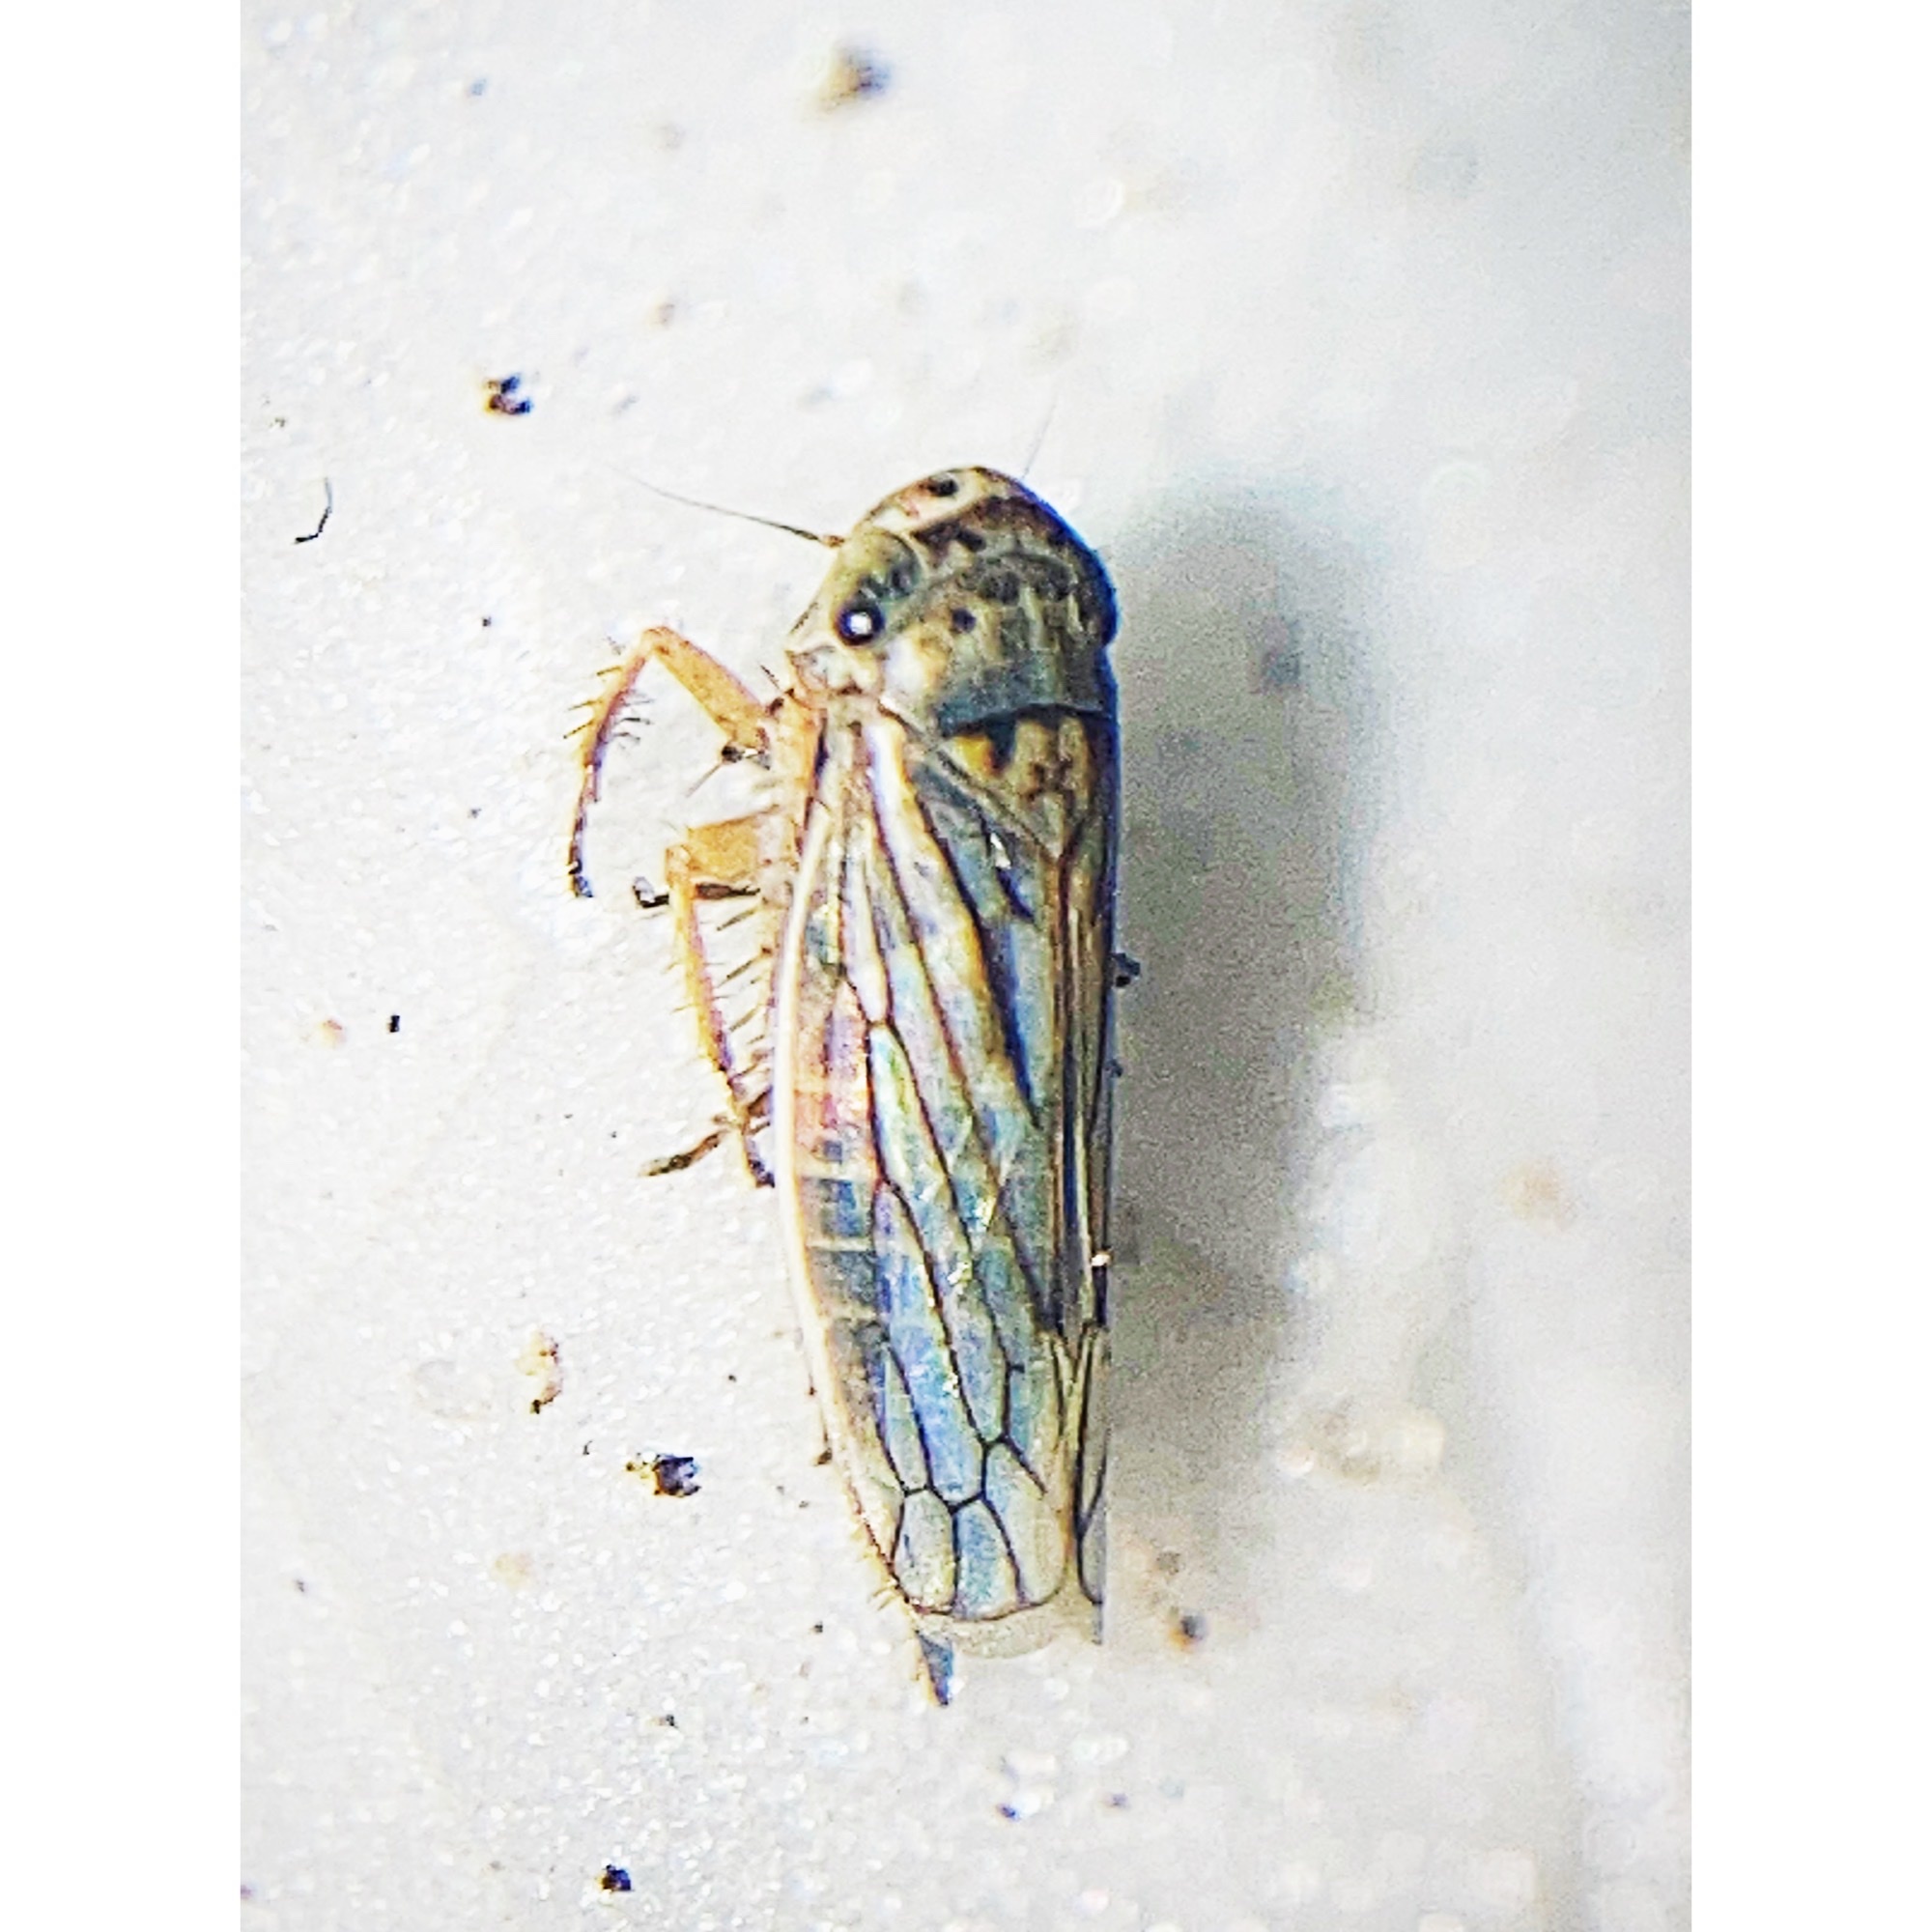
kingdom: Animalia
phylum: Arthropoda
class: Insecta
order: Hemiptera
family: Cicadellidae
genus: Exitianus
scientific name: Exitianus exitiosus
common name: Gray lawn leafhopper
